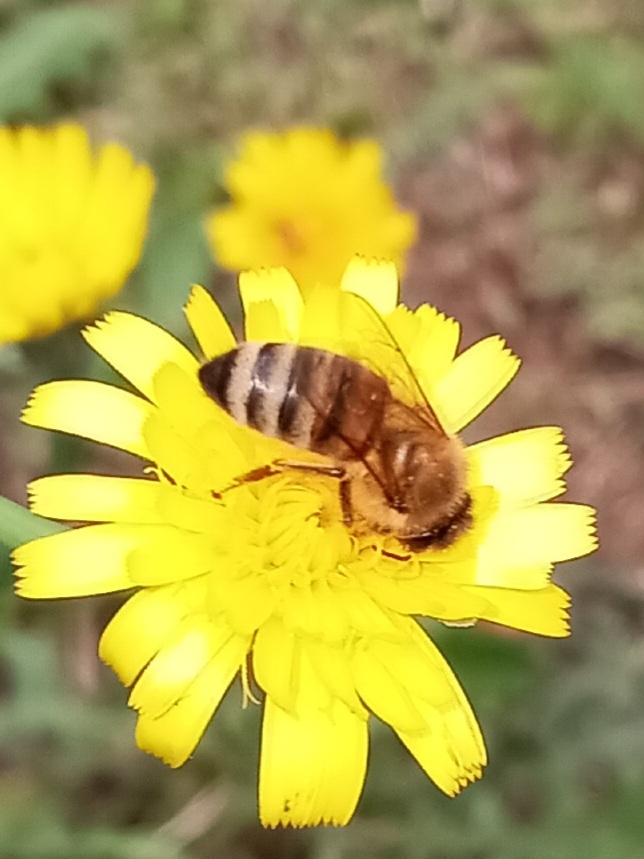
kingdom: Animalia
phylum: Arthropoda
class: Insecta
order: Hymenoptera
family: Apidae
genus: Apis
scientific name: Apis mellifera
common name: Honey bee
